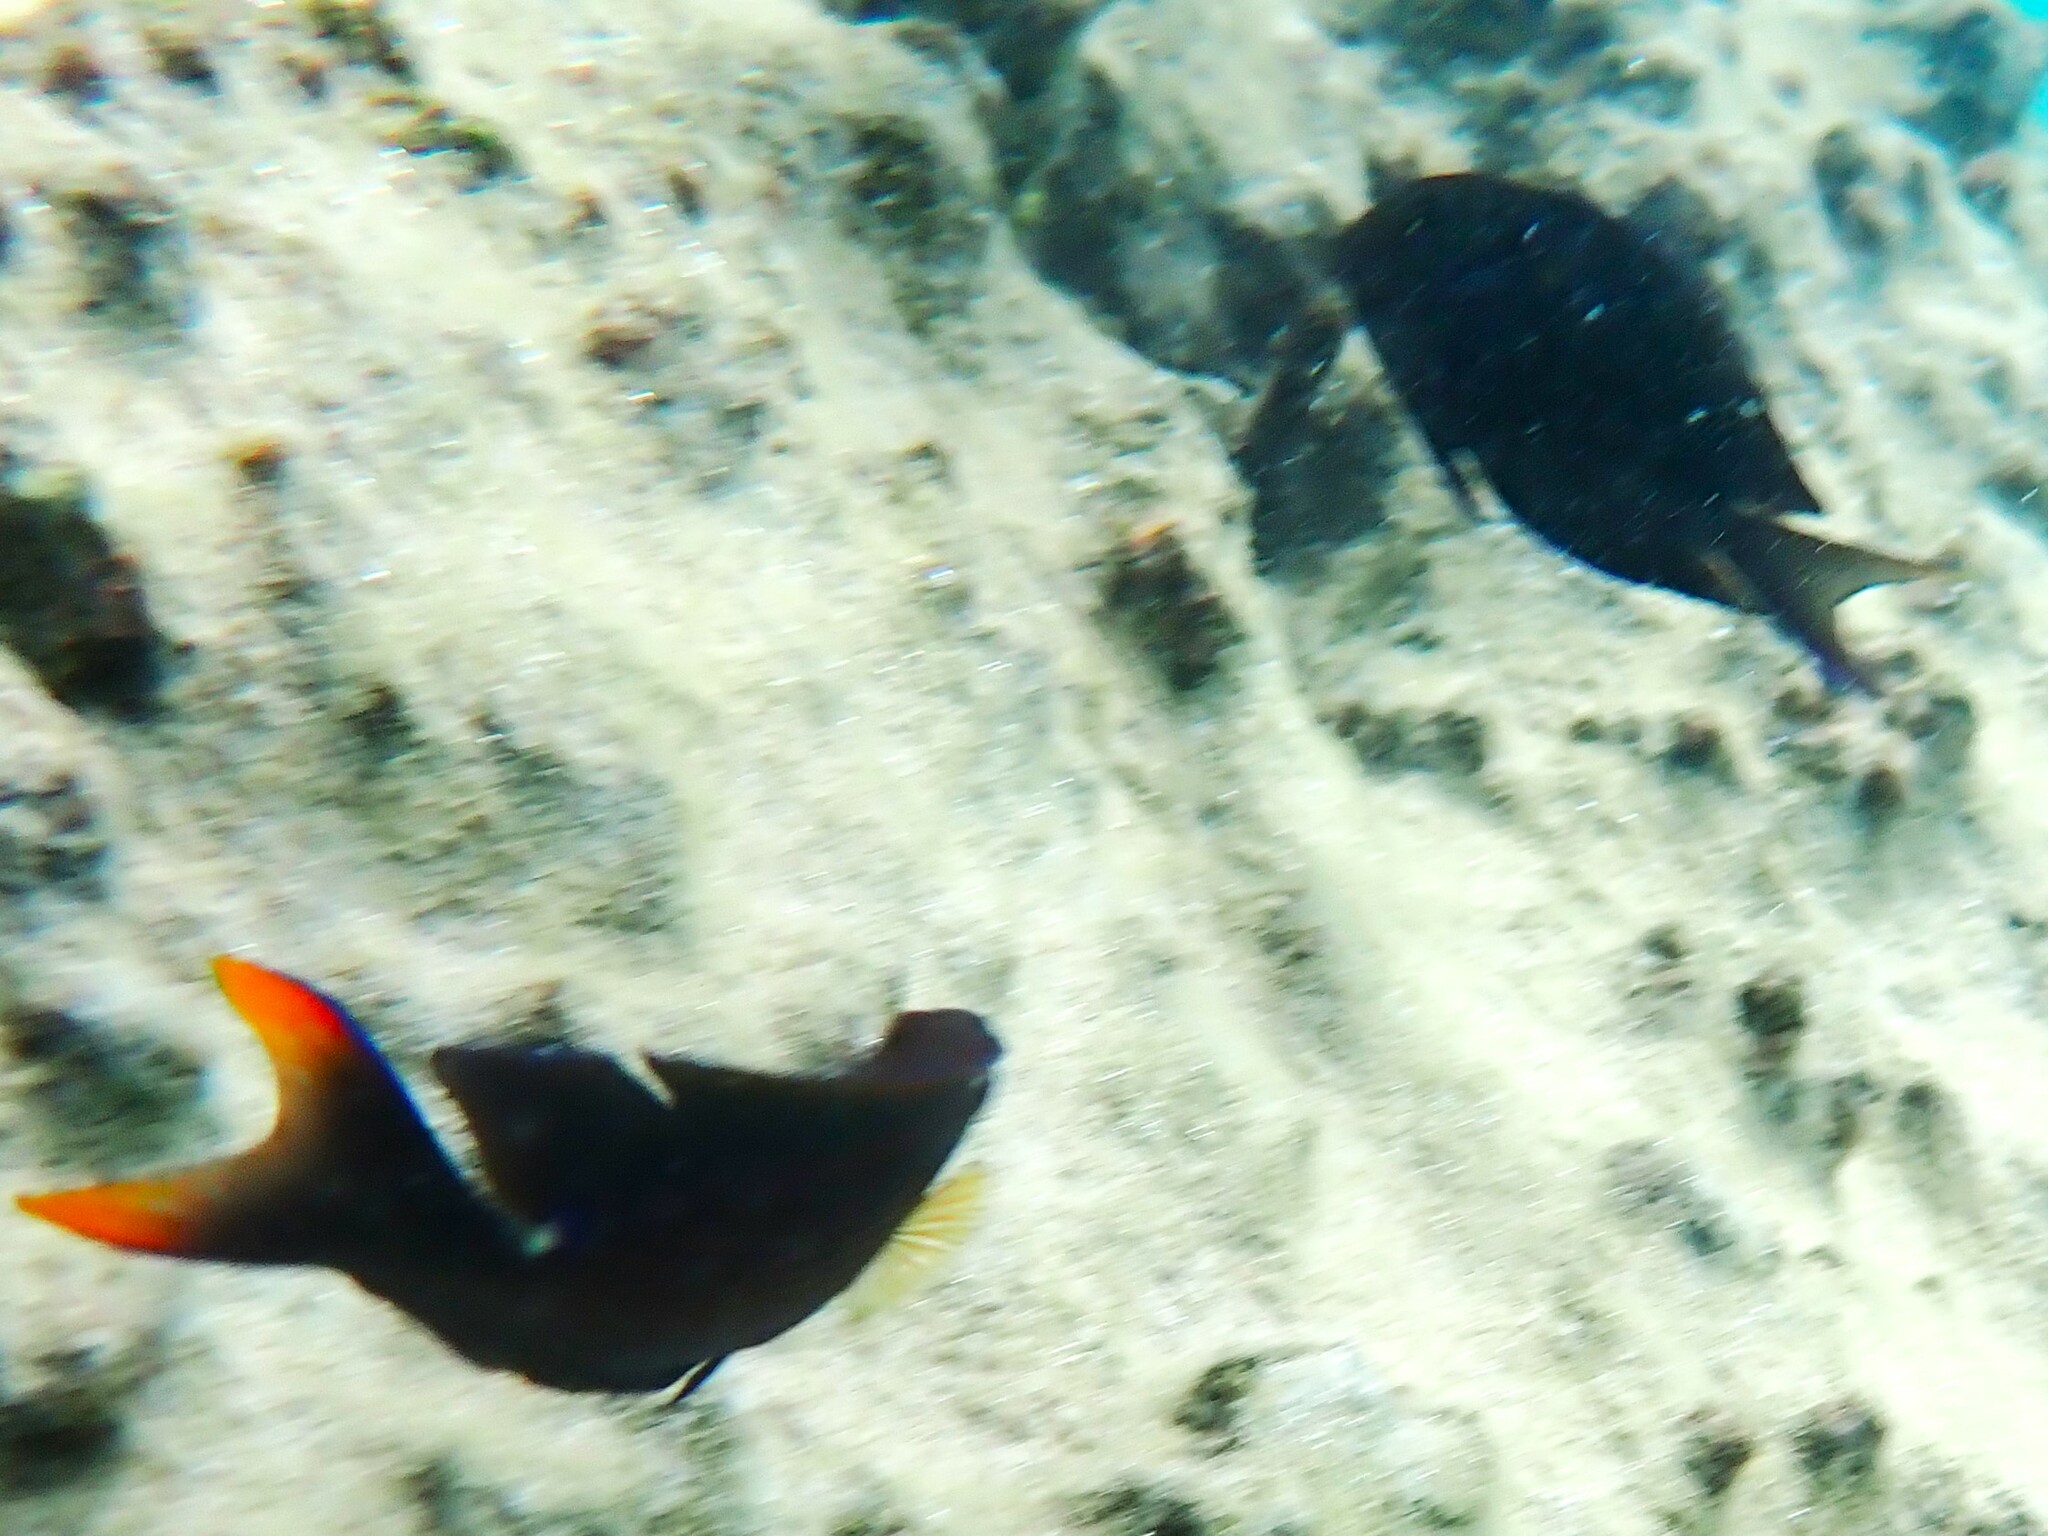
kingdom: Animalia
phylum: Chordata
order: Perciformes
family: Acanthuridae
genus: Ctenochaetus
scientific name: Ctenochaetus striatus
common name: Bristle-toothed surgeonfish
